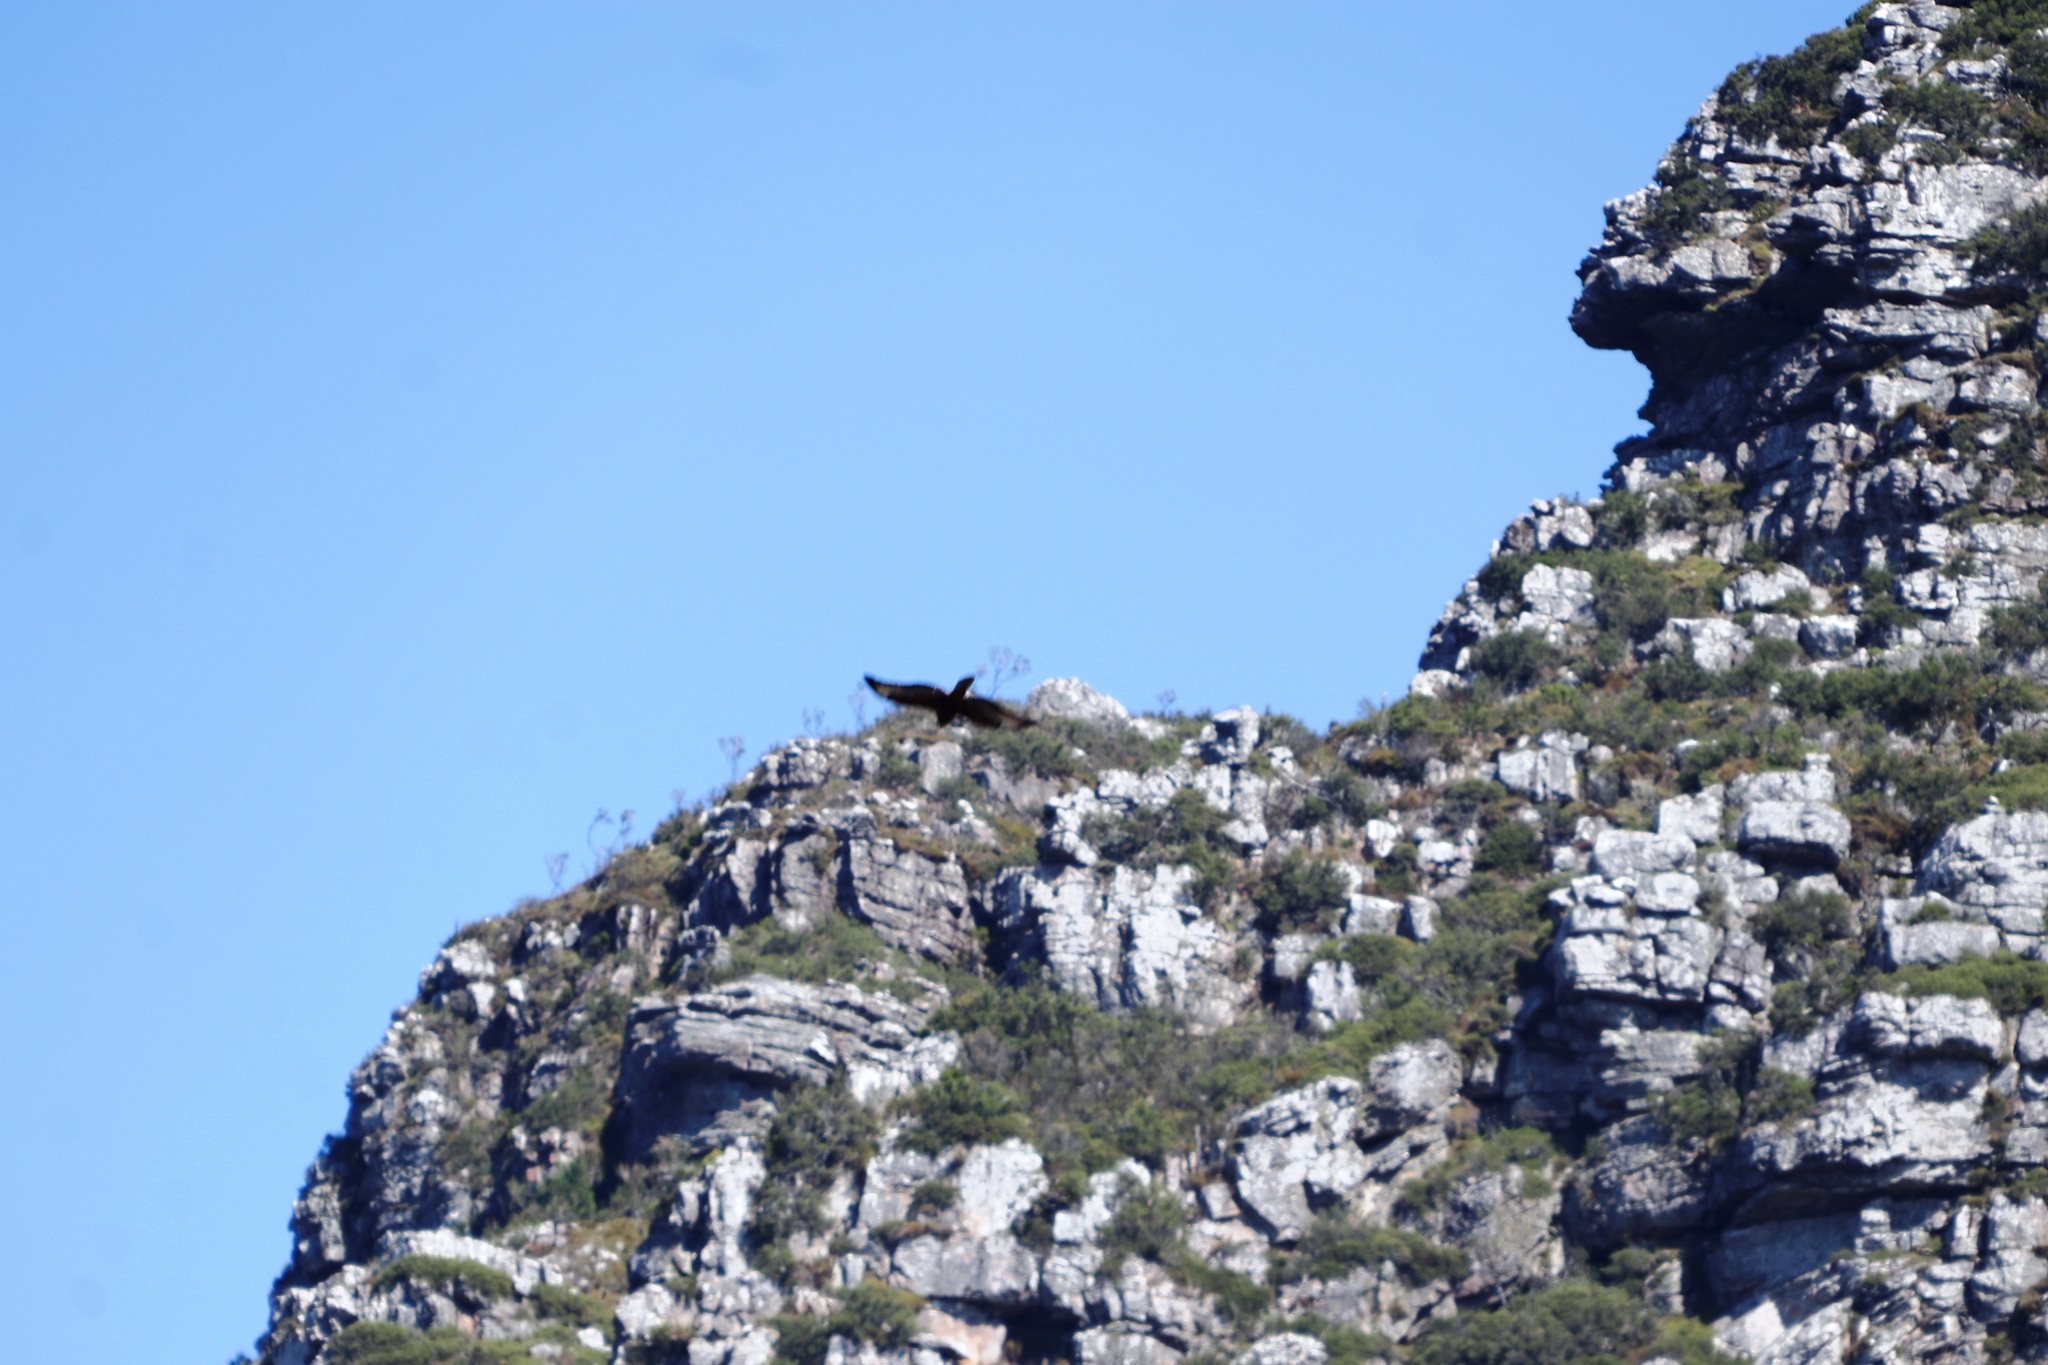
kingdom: Animalia
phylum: Chordata
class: Aves
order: Accipitriformes
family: Accipitridae
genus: Aquila
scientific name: Aquila verreauxii
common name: Verreaux's eagle
